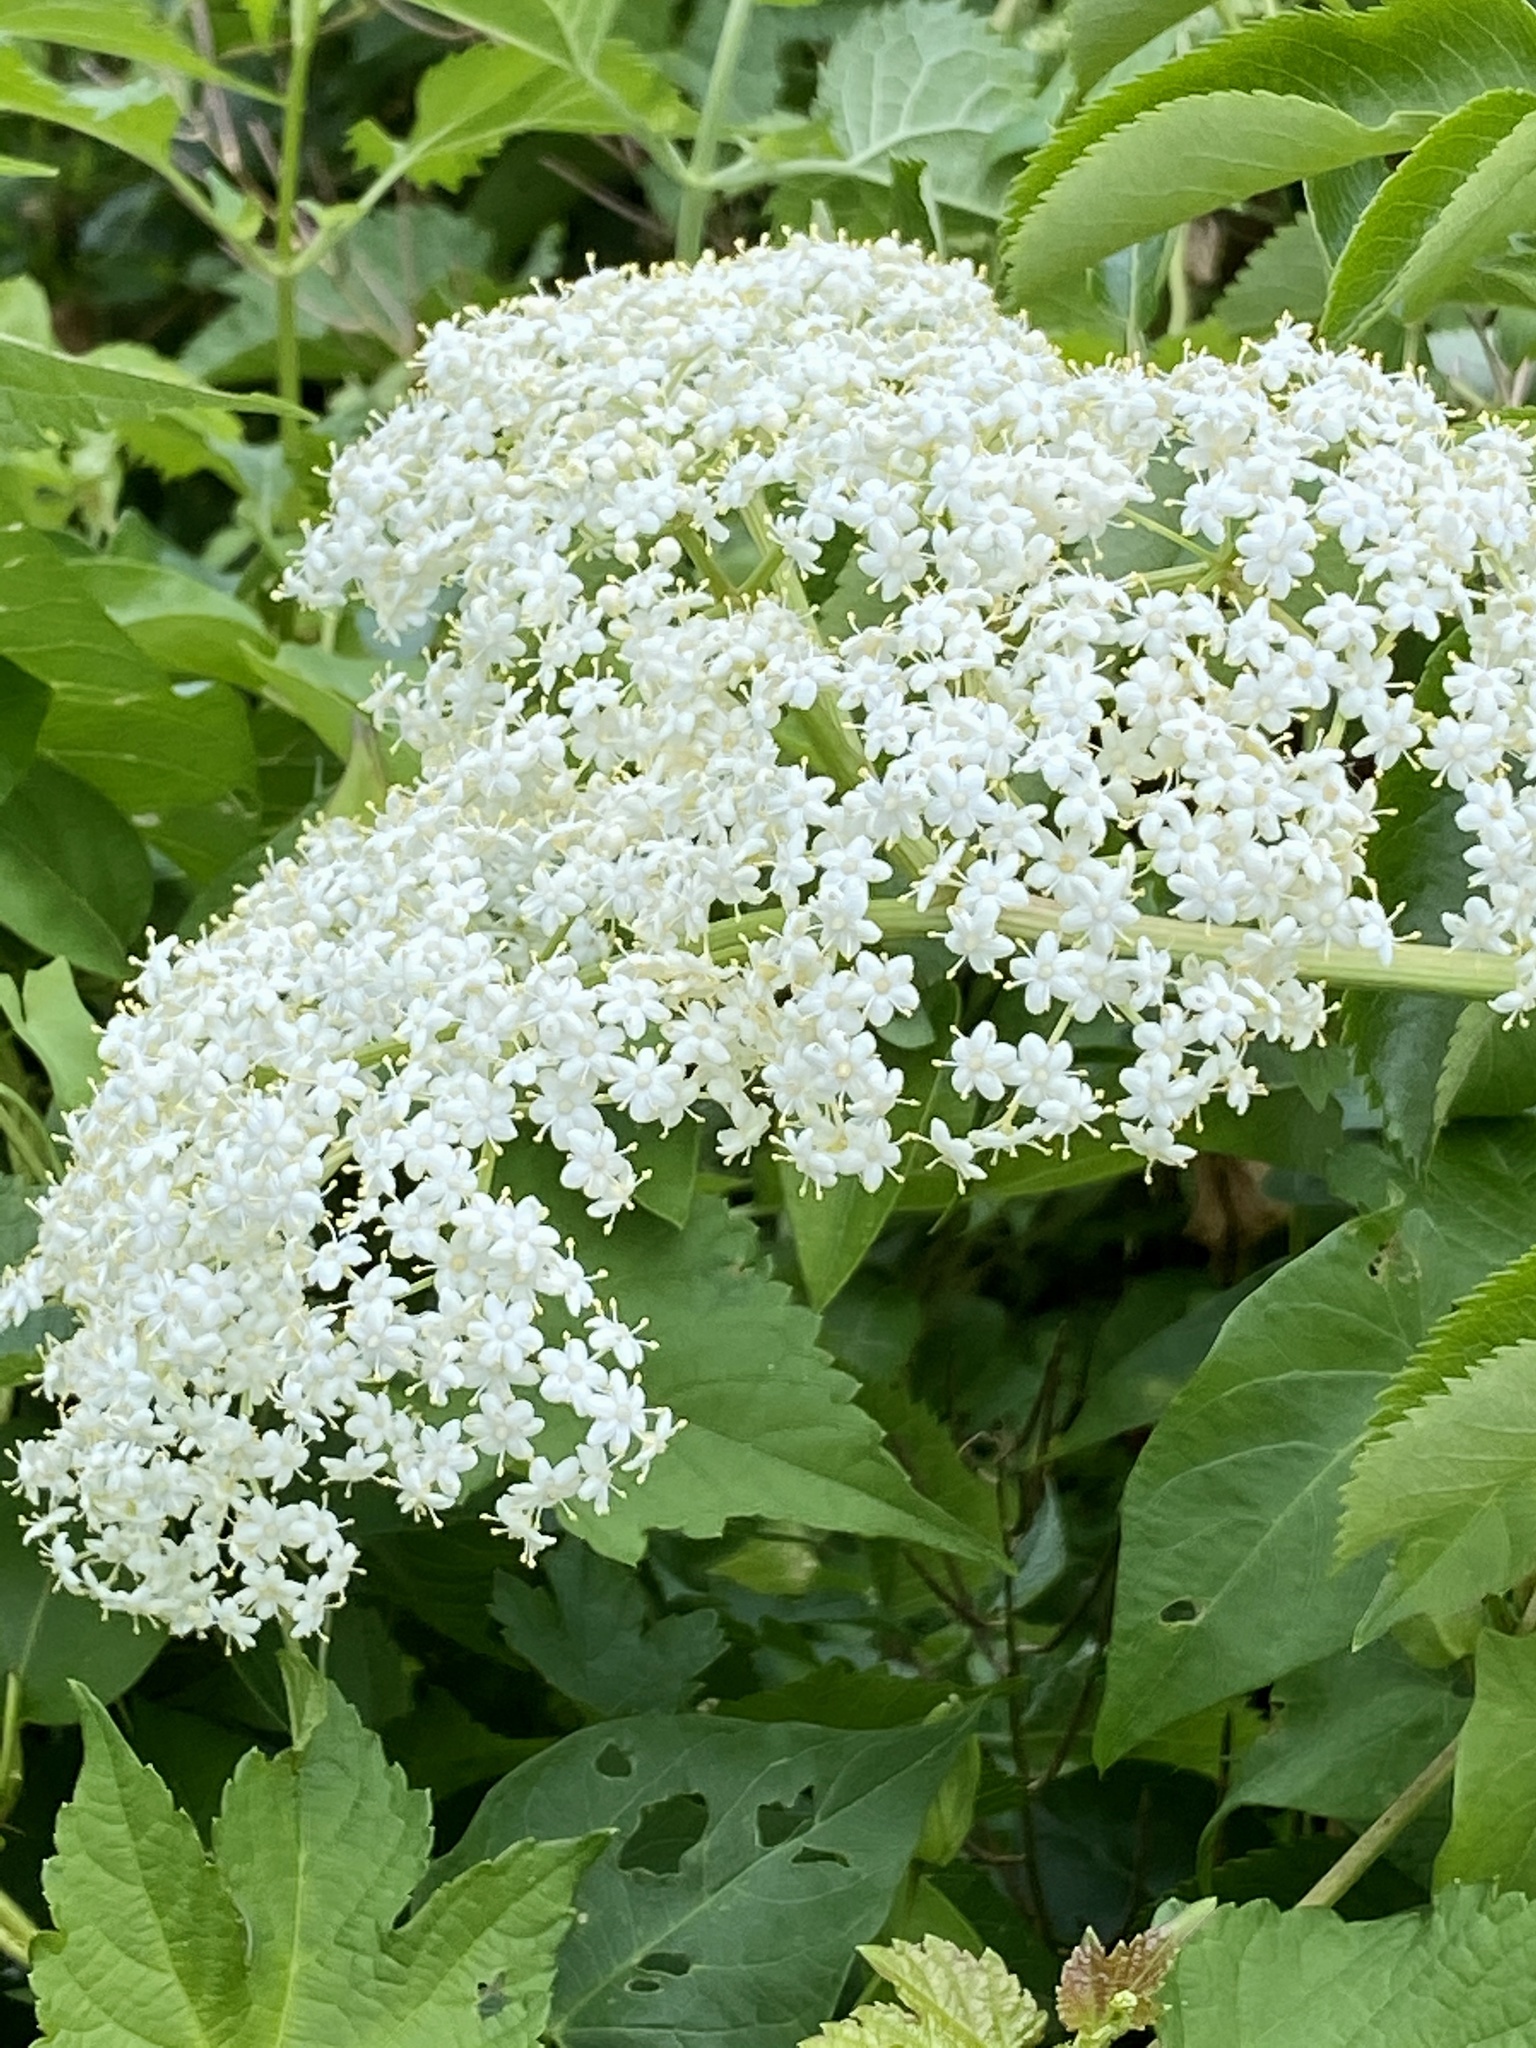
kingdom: Plantae
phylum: Tracheophyta
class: Magnoliopsida
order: Dipsacales
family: Viburnaceae
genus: Sambucus
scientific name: Sambucus canadensis
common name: American elder
